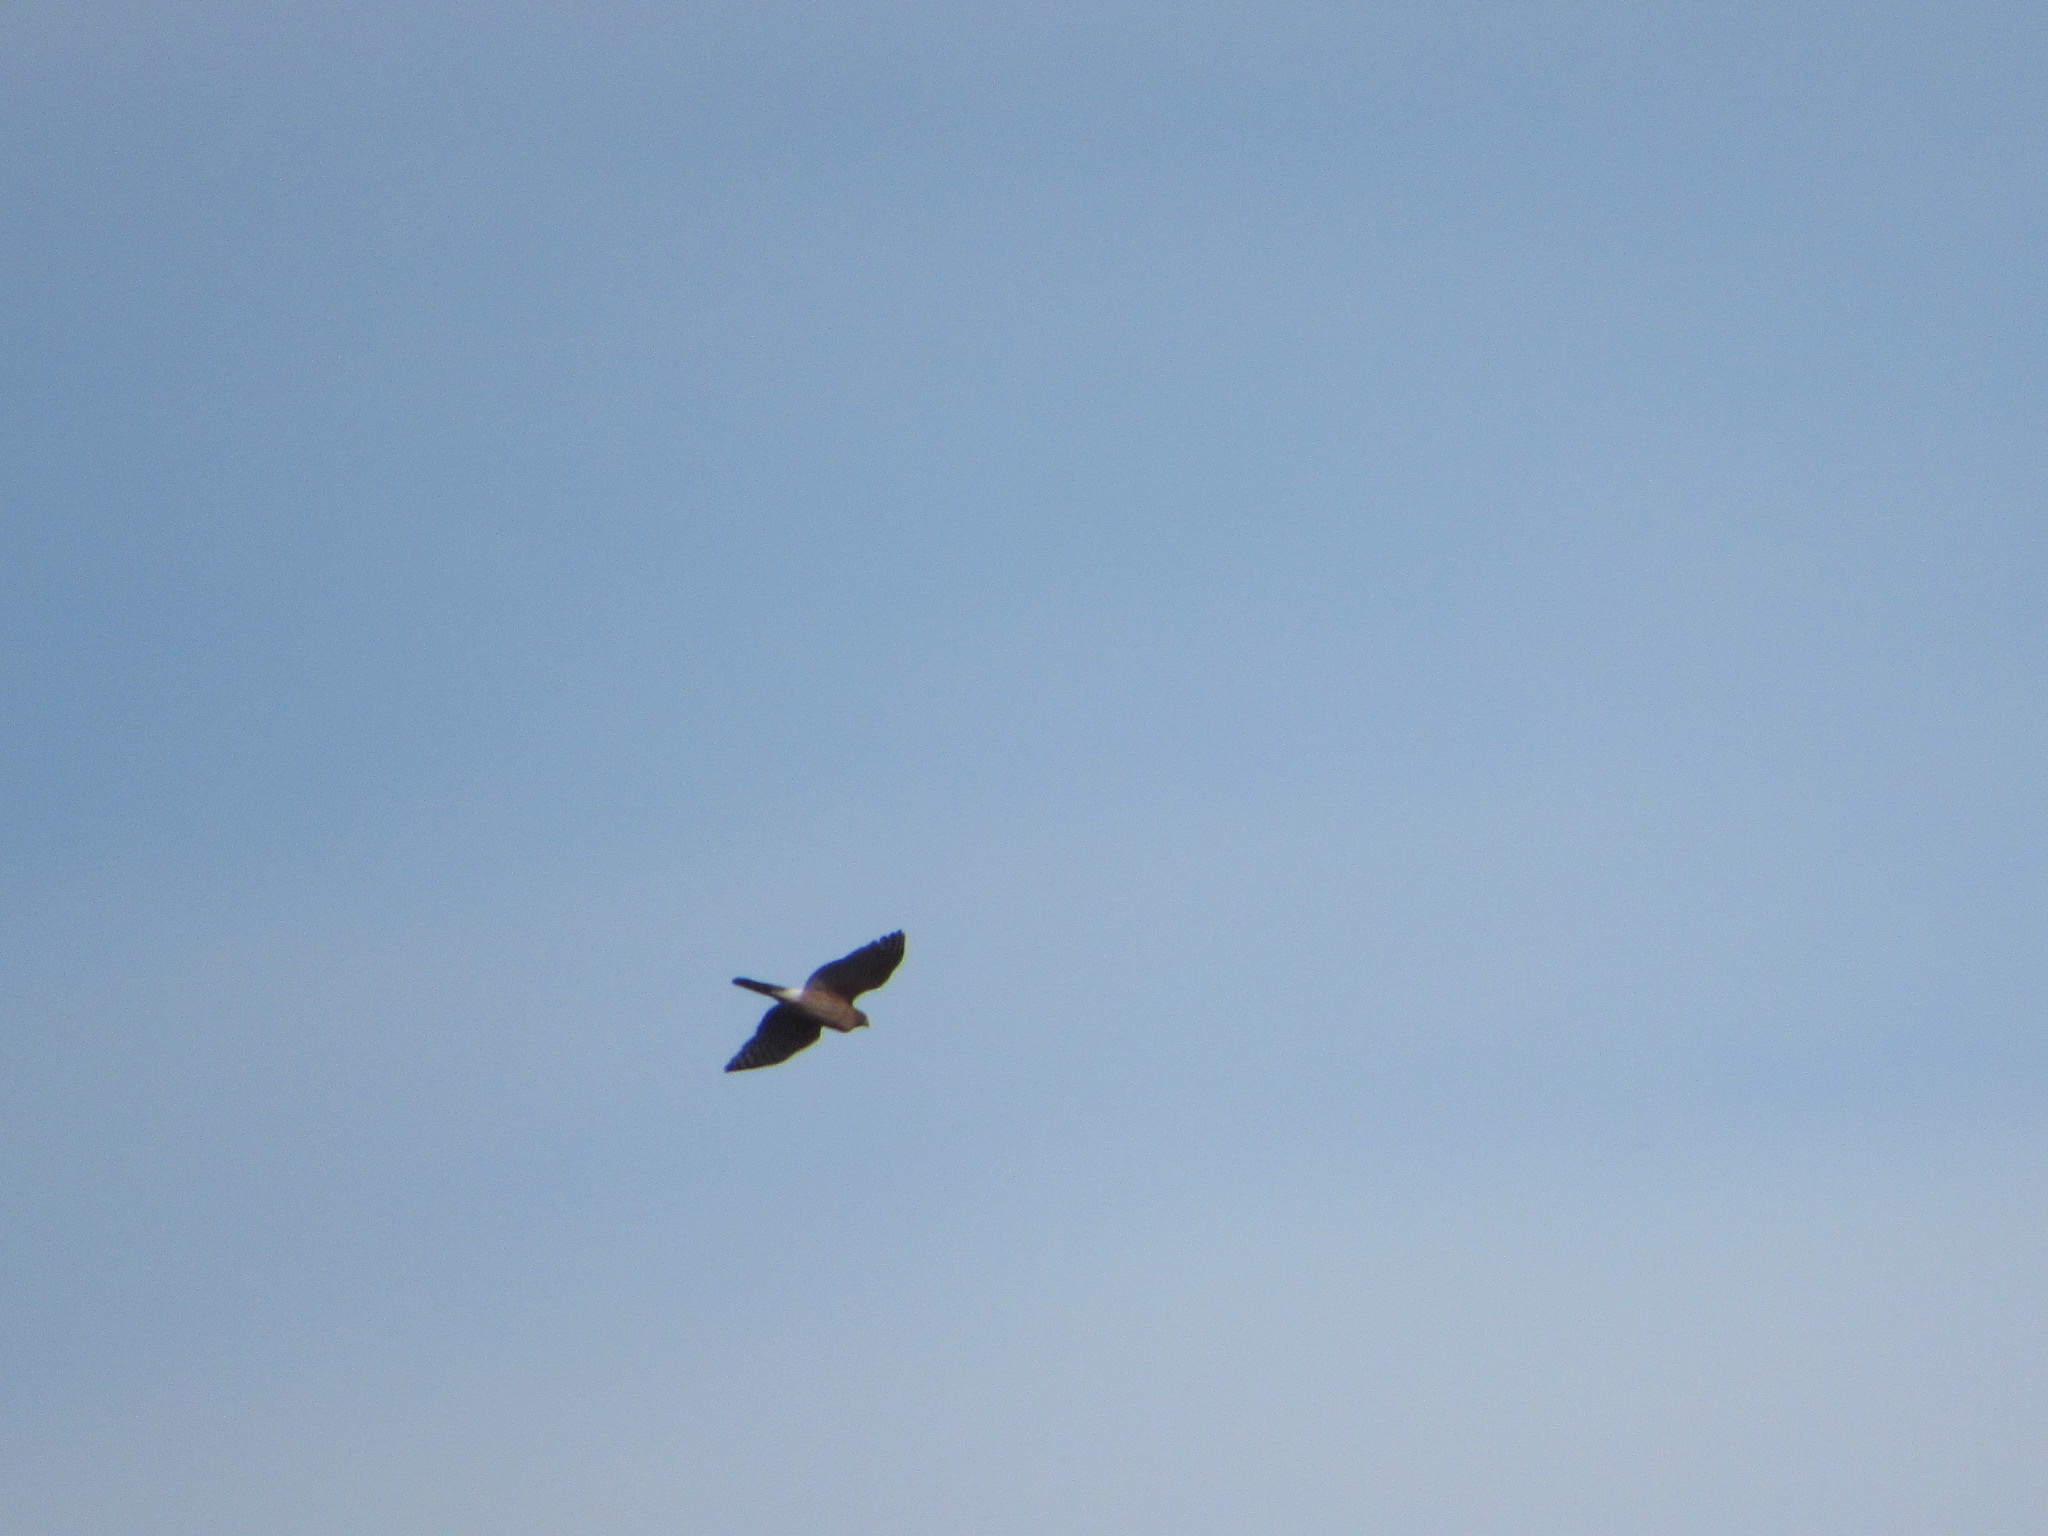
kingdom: Animalia
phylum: Chordata
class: Aves
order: Accipitriformes
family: Accipitridae
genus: Accipiter
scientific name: Accipiter cooperii
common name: Cooper's hawk
